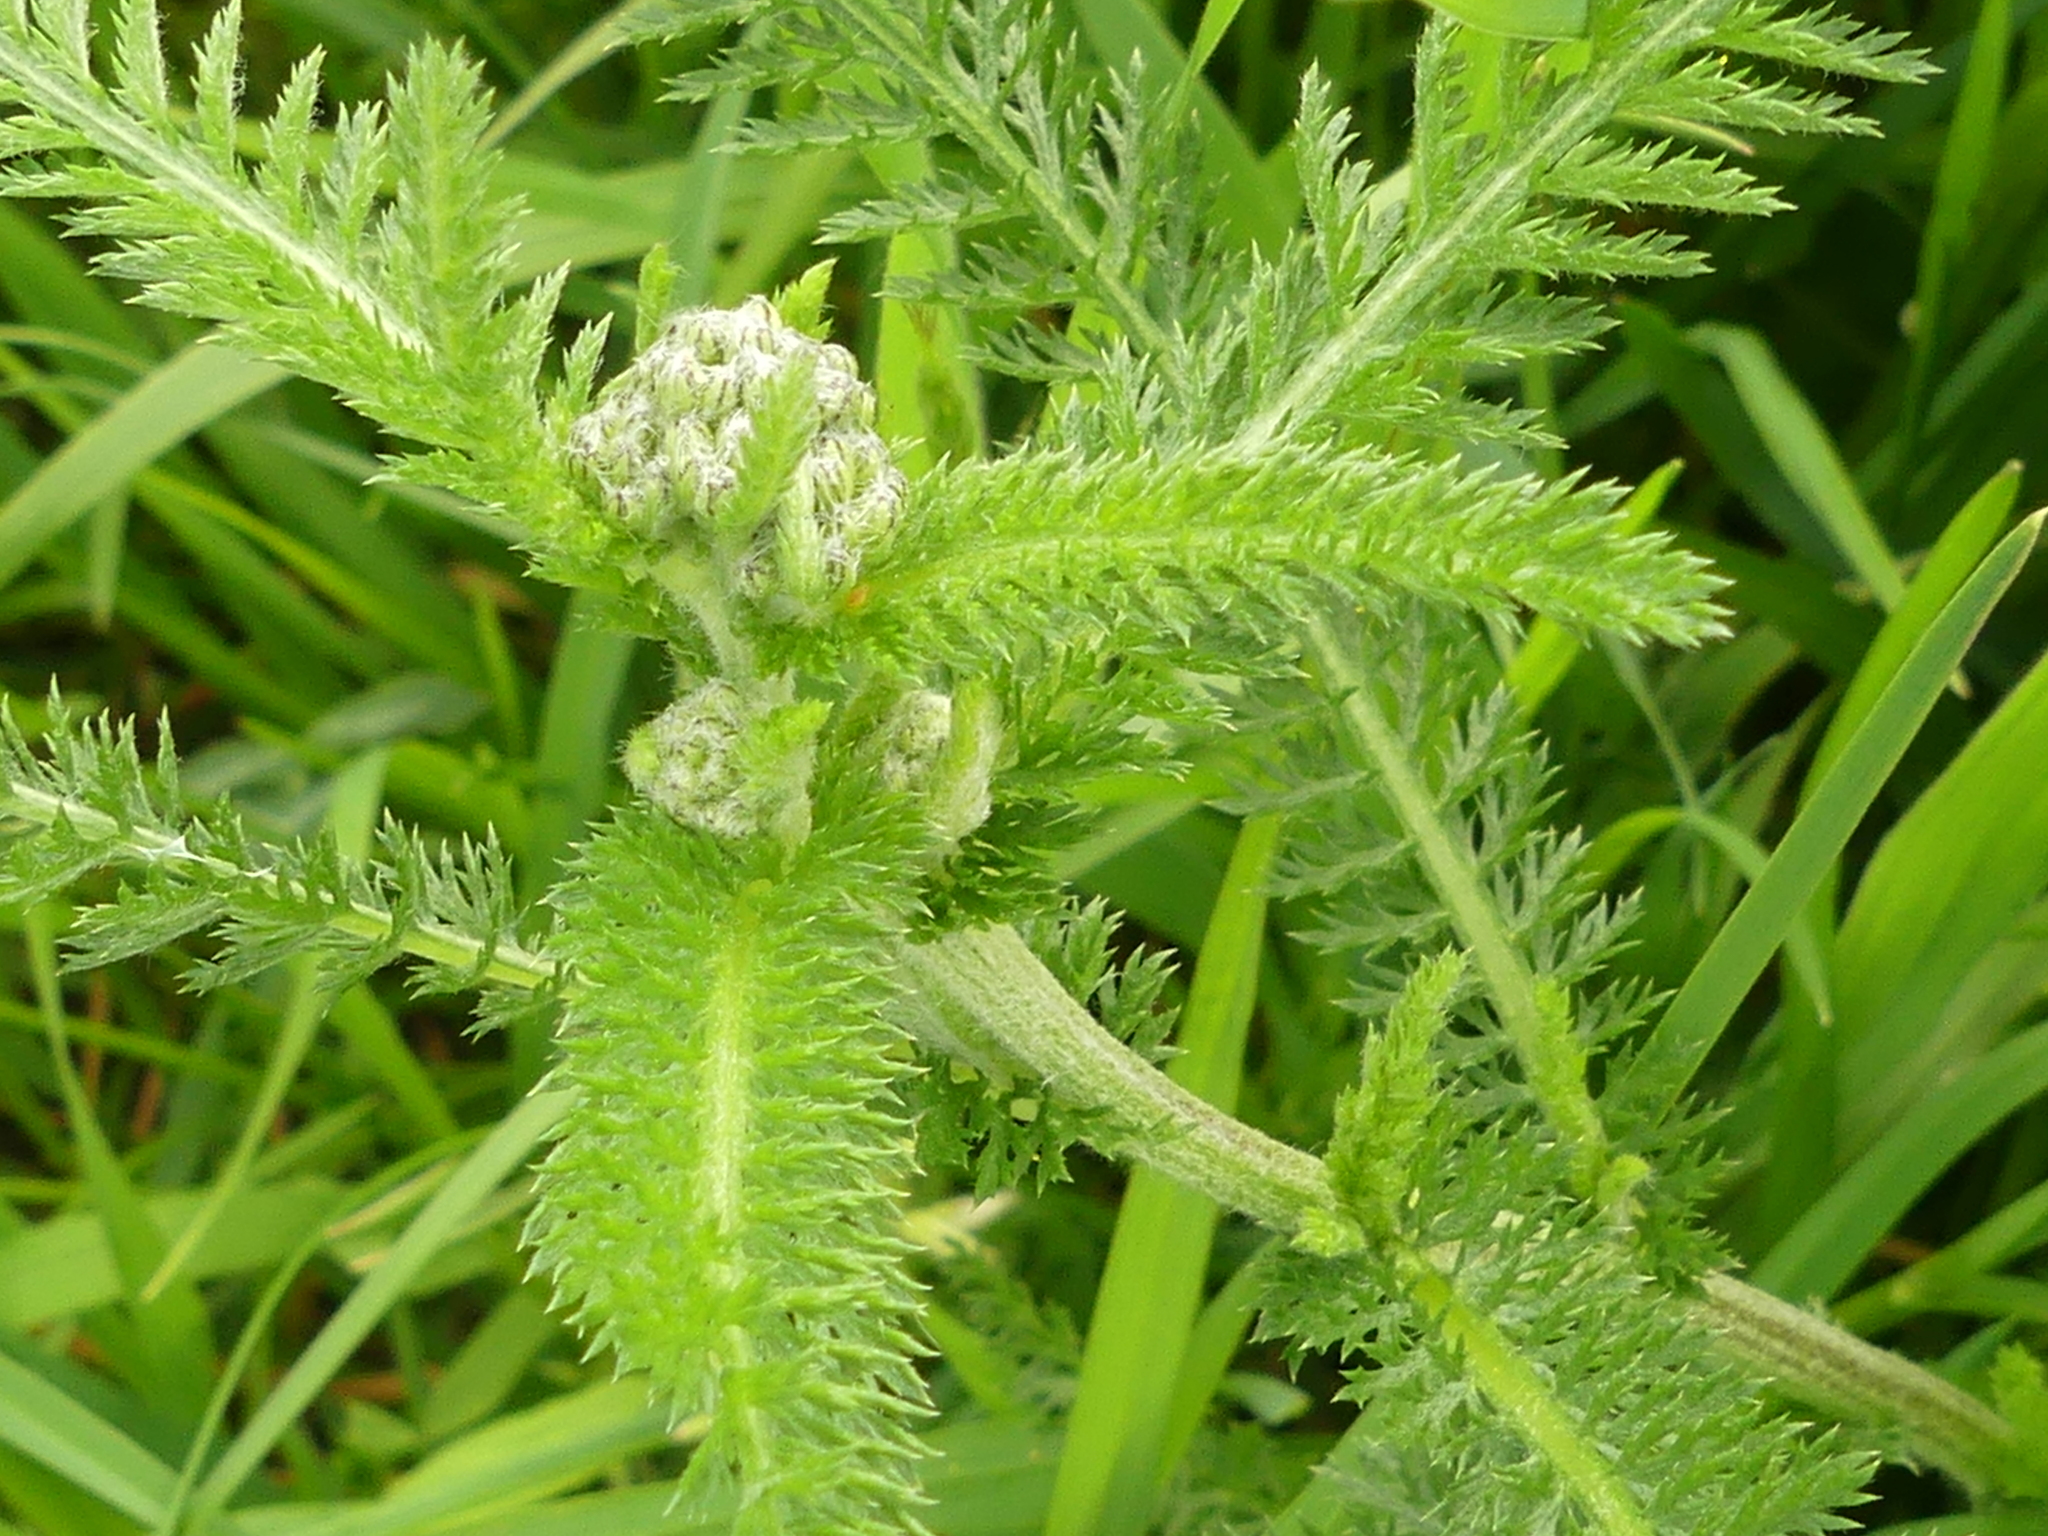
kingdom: Plantae
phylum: Tracheophyta
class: Magnoliopsida
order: Asterales
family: Asteraceae
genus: Achillea
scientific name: Achillea millefolium
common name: Yarrow
